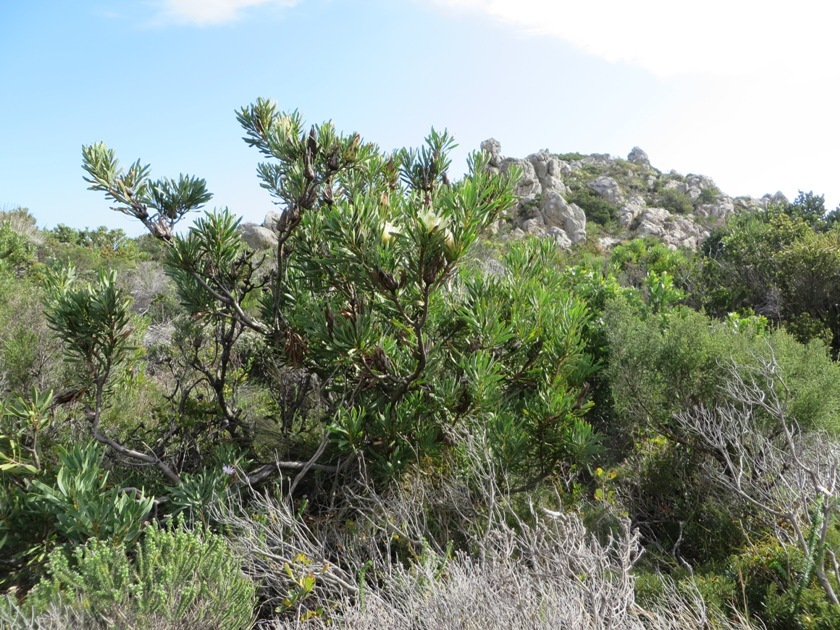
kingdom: Plantae
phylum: Tracheophyta
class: Magnoliopsida
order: Proteales
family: Proteaceae
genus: Protea
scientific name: Protea repens
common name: Sugarbush
